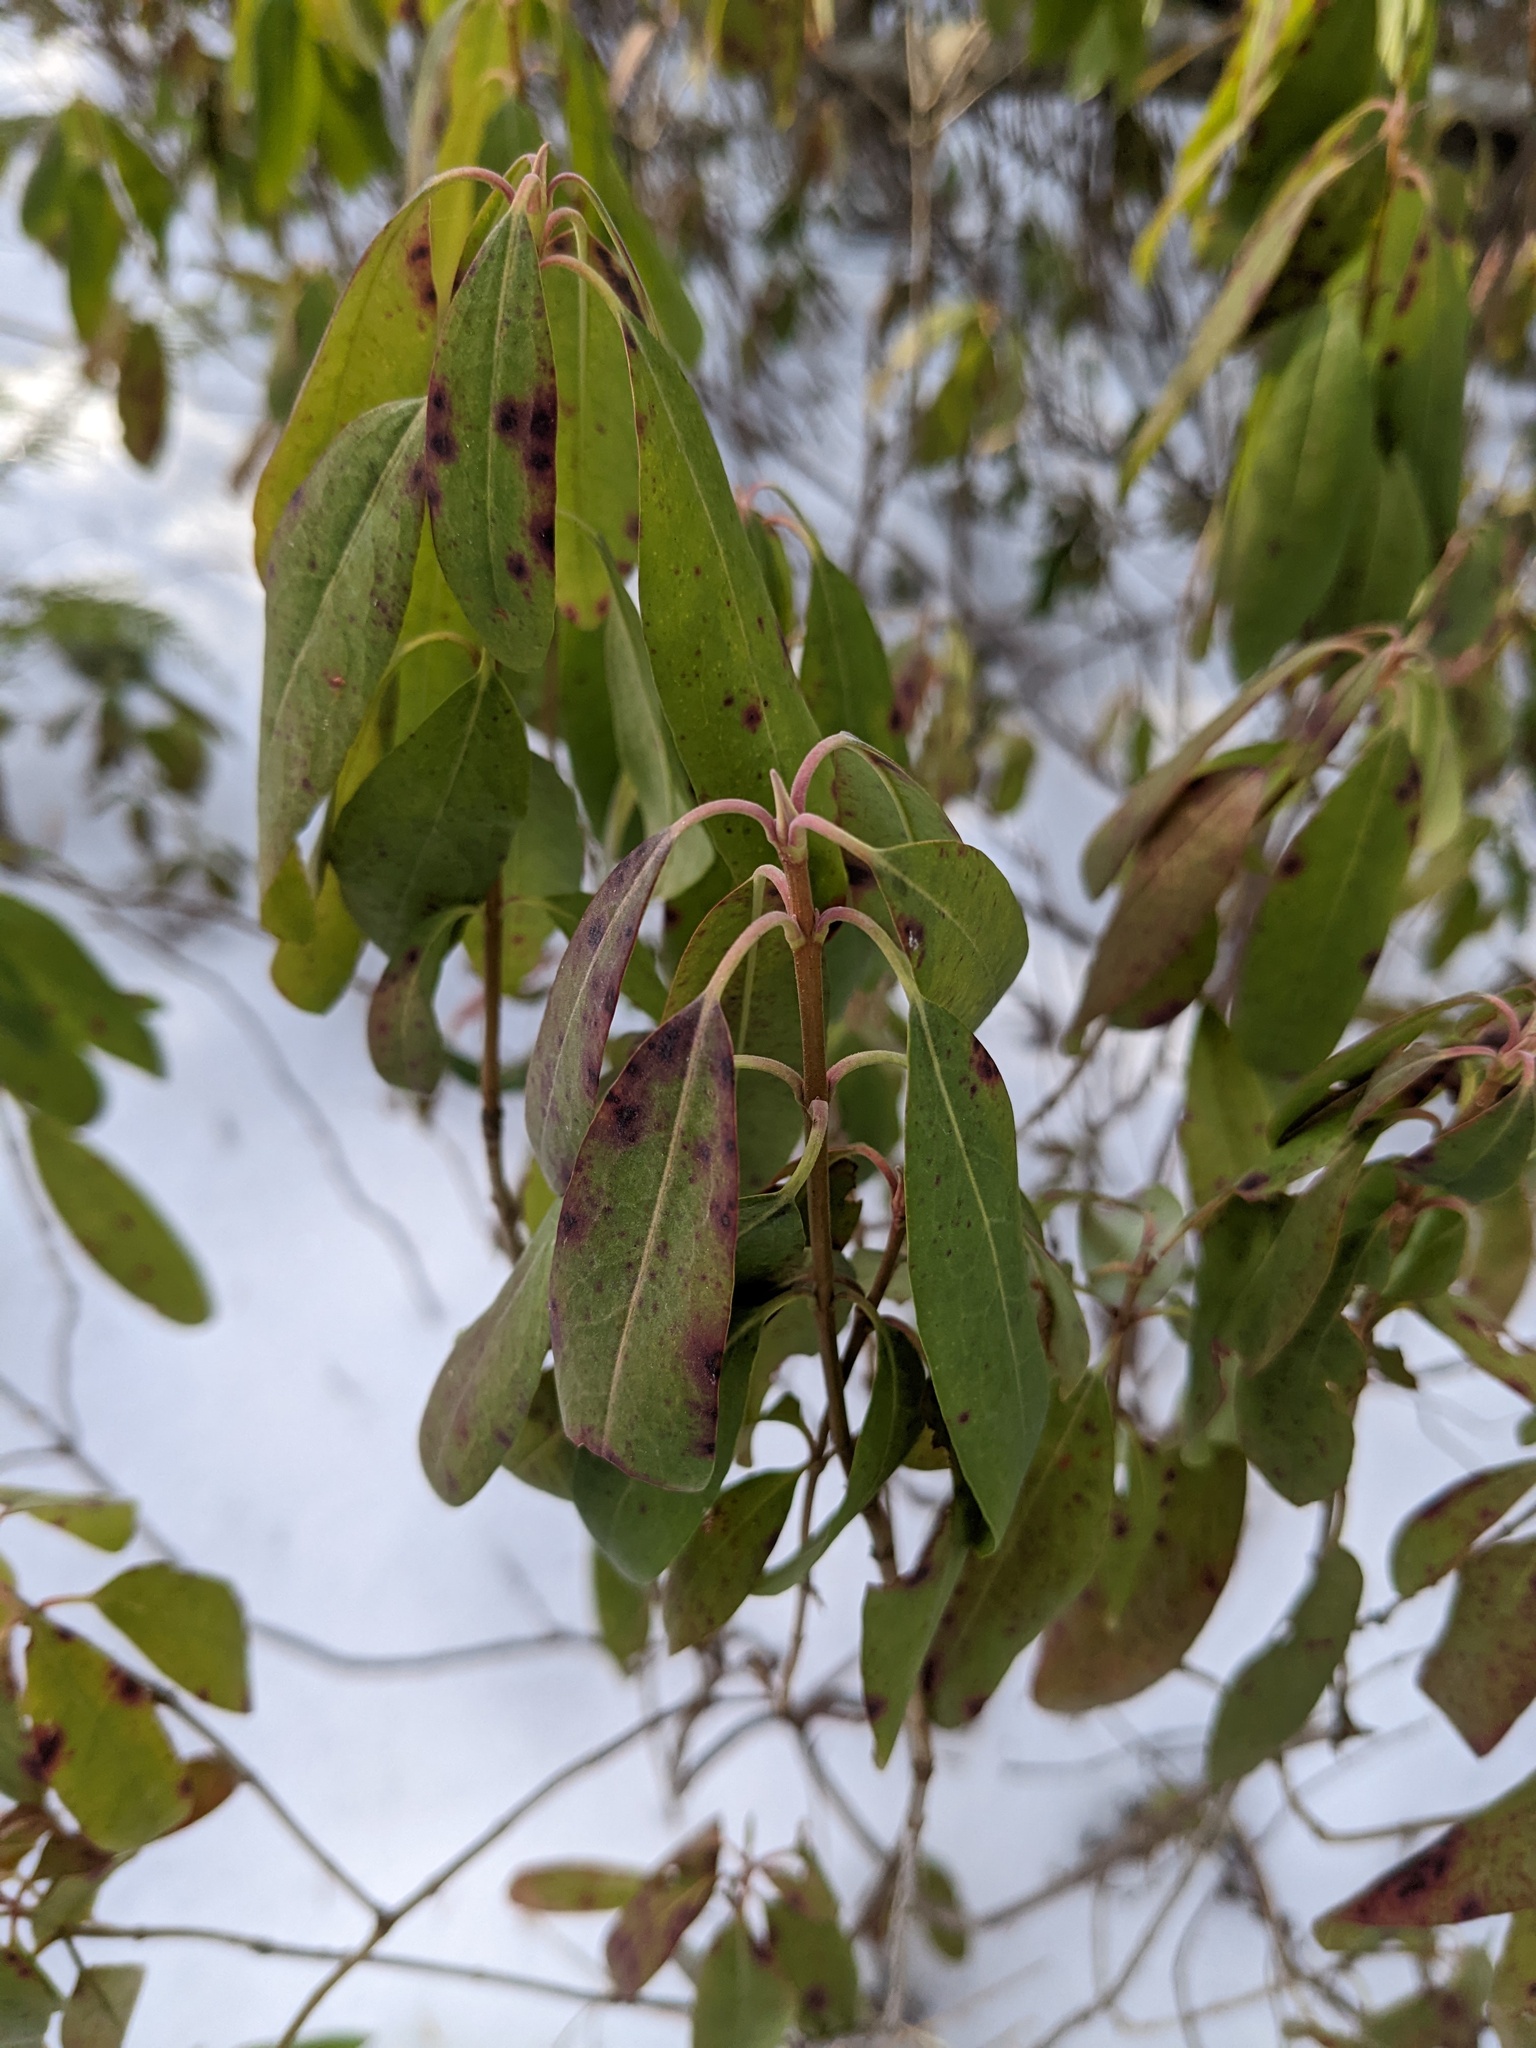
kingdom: Plantae
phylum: Tracheophyta
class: Magnoliopsida
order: Ericales
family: Ericaceae
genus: Kalmia
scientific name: Kalmia angustifolia
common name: Sheep-laurel
